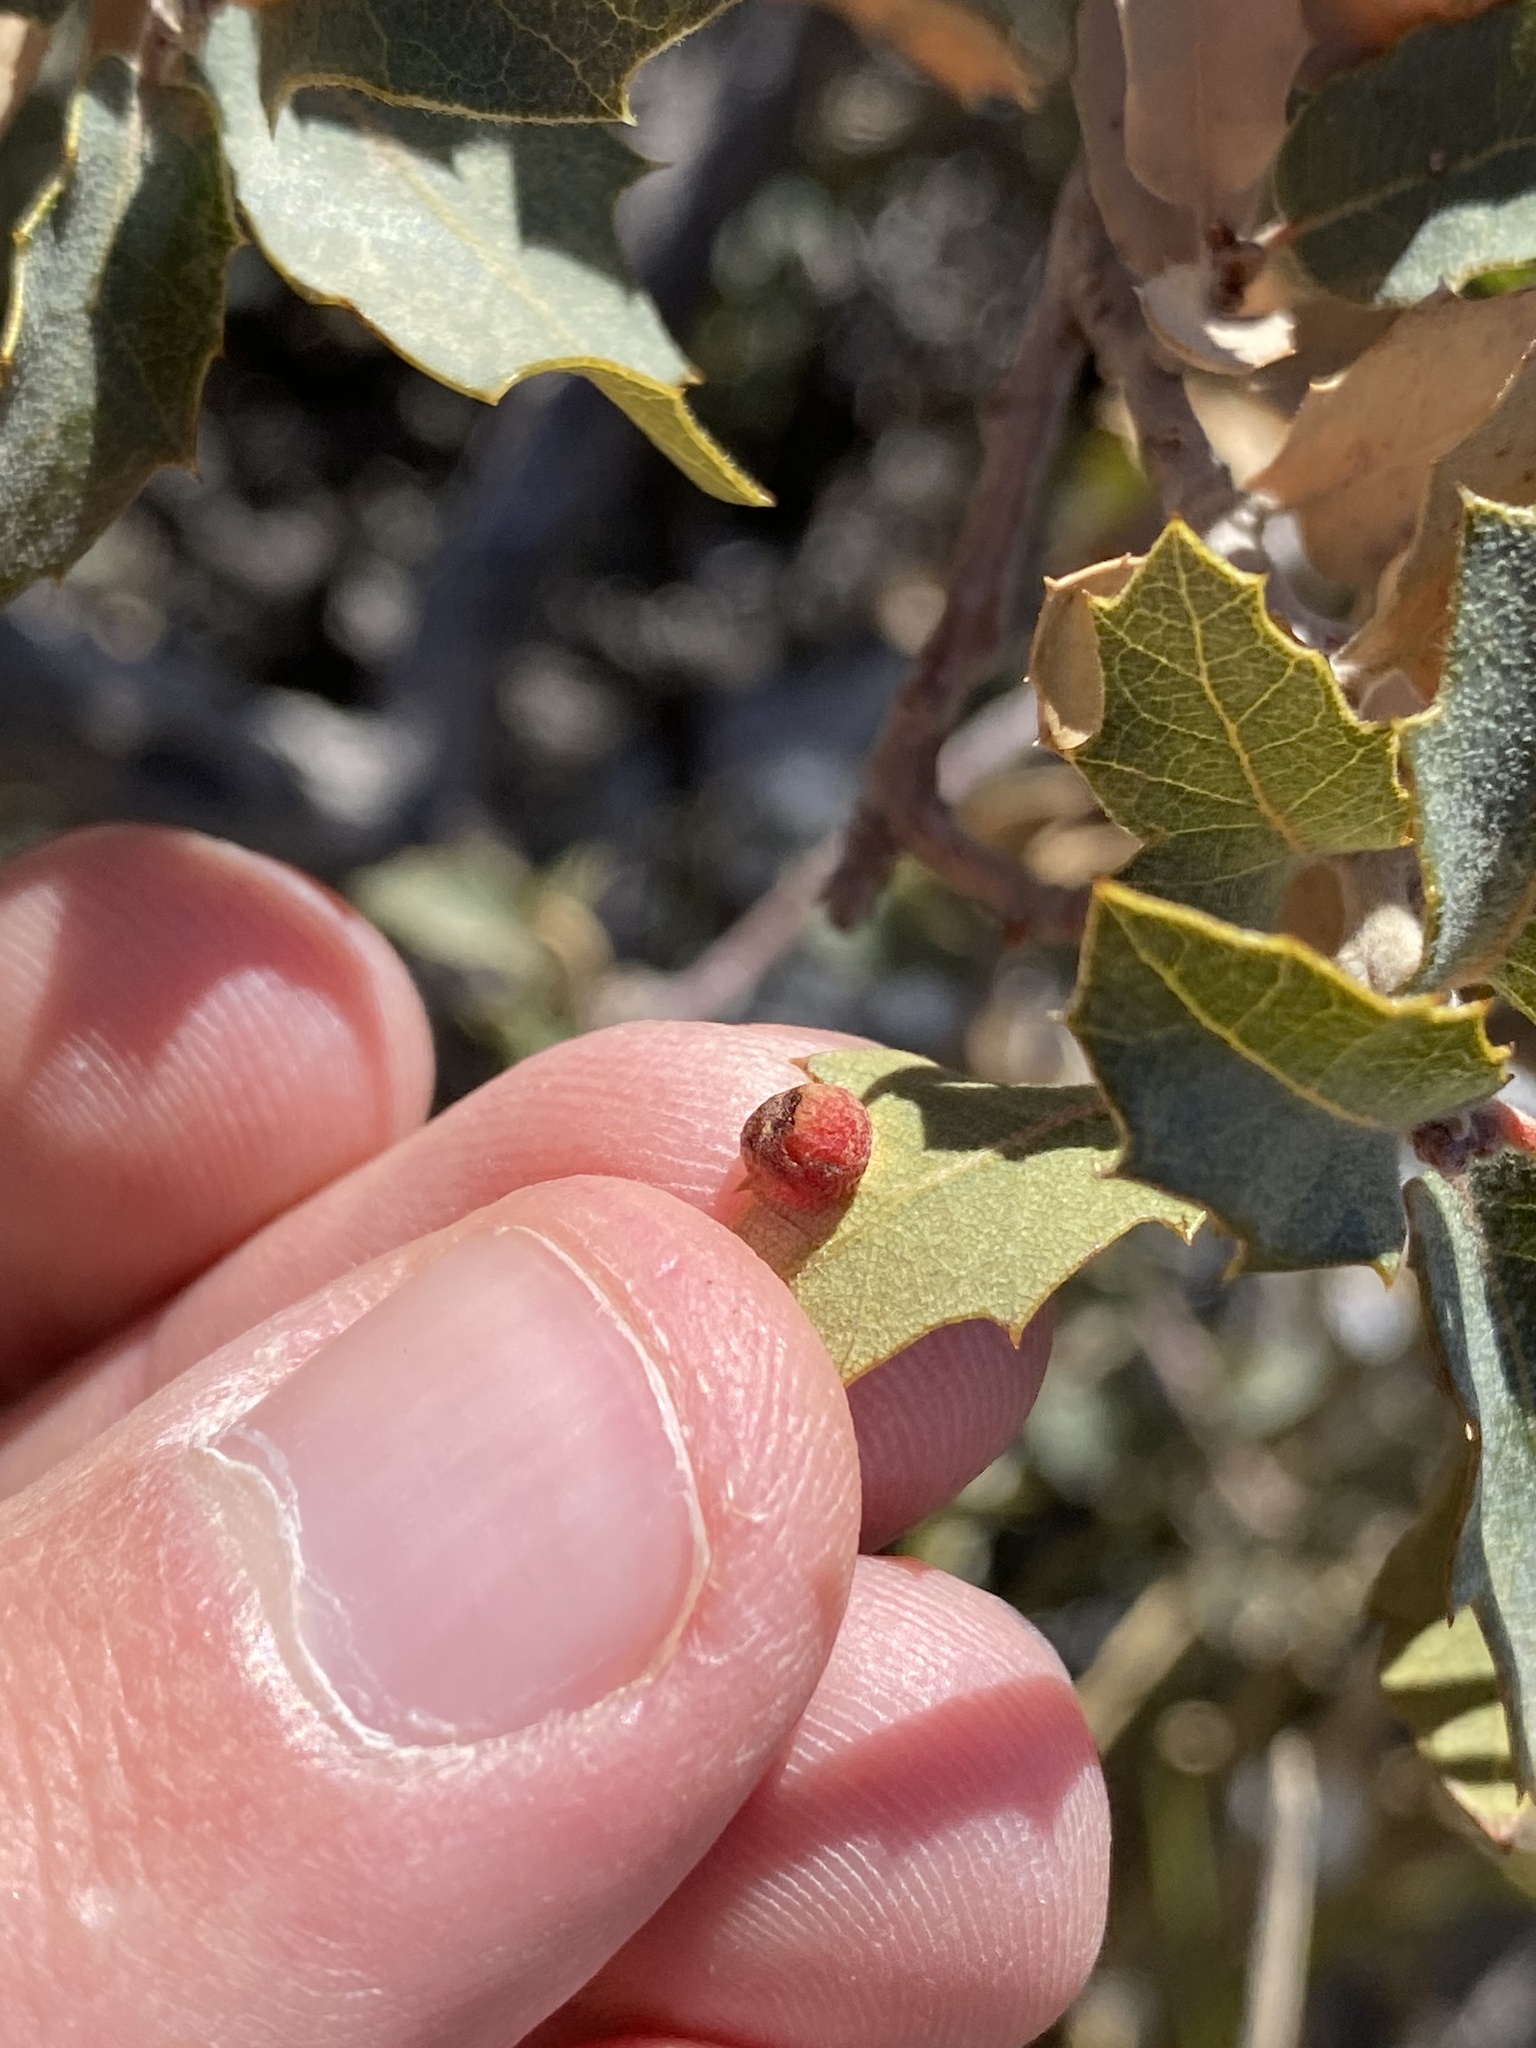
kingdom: Animalia
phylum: Arthropoda
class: Insecta
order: Hymenoptera
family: Cynipidae
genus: Atrusca
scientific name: Atrusca
